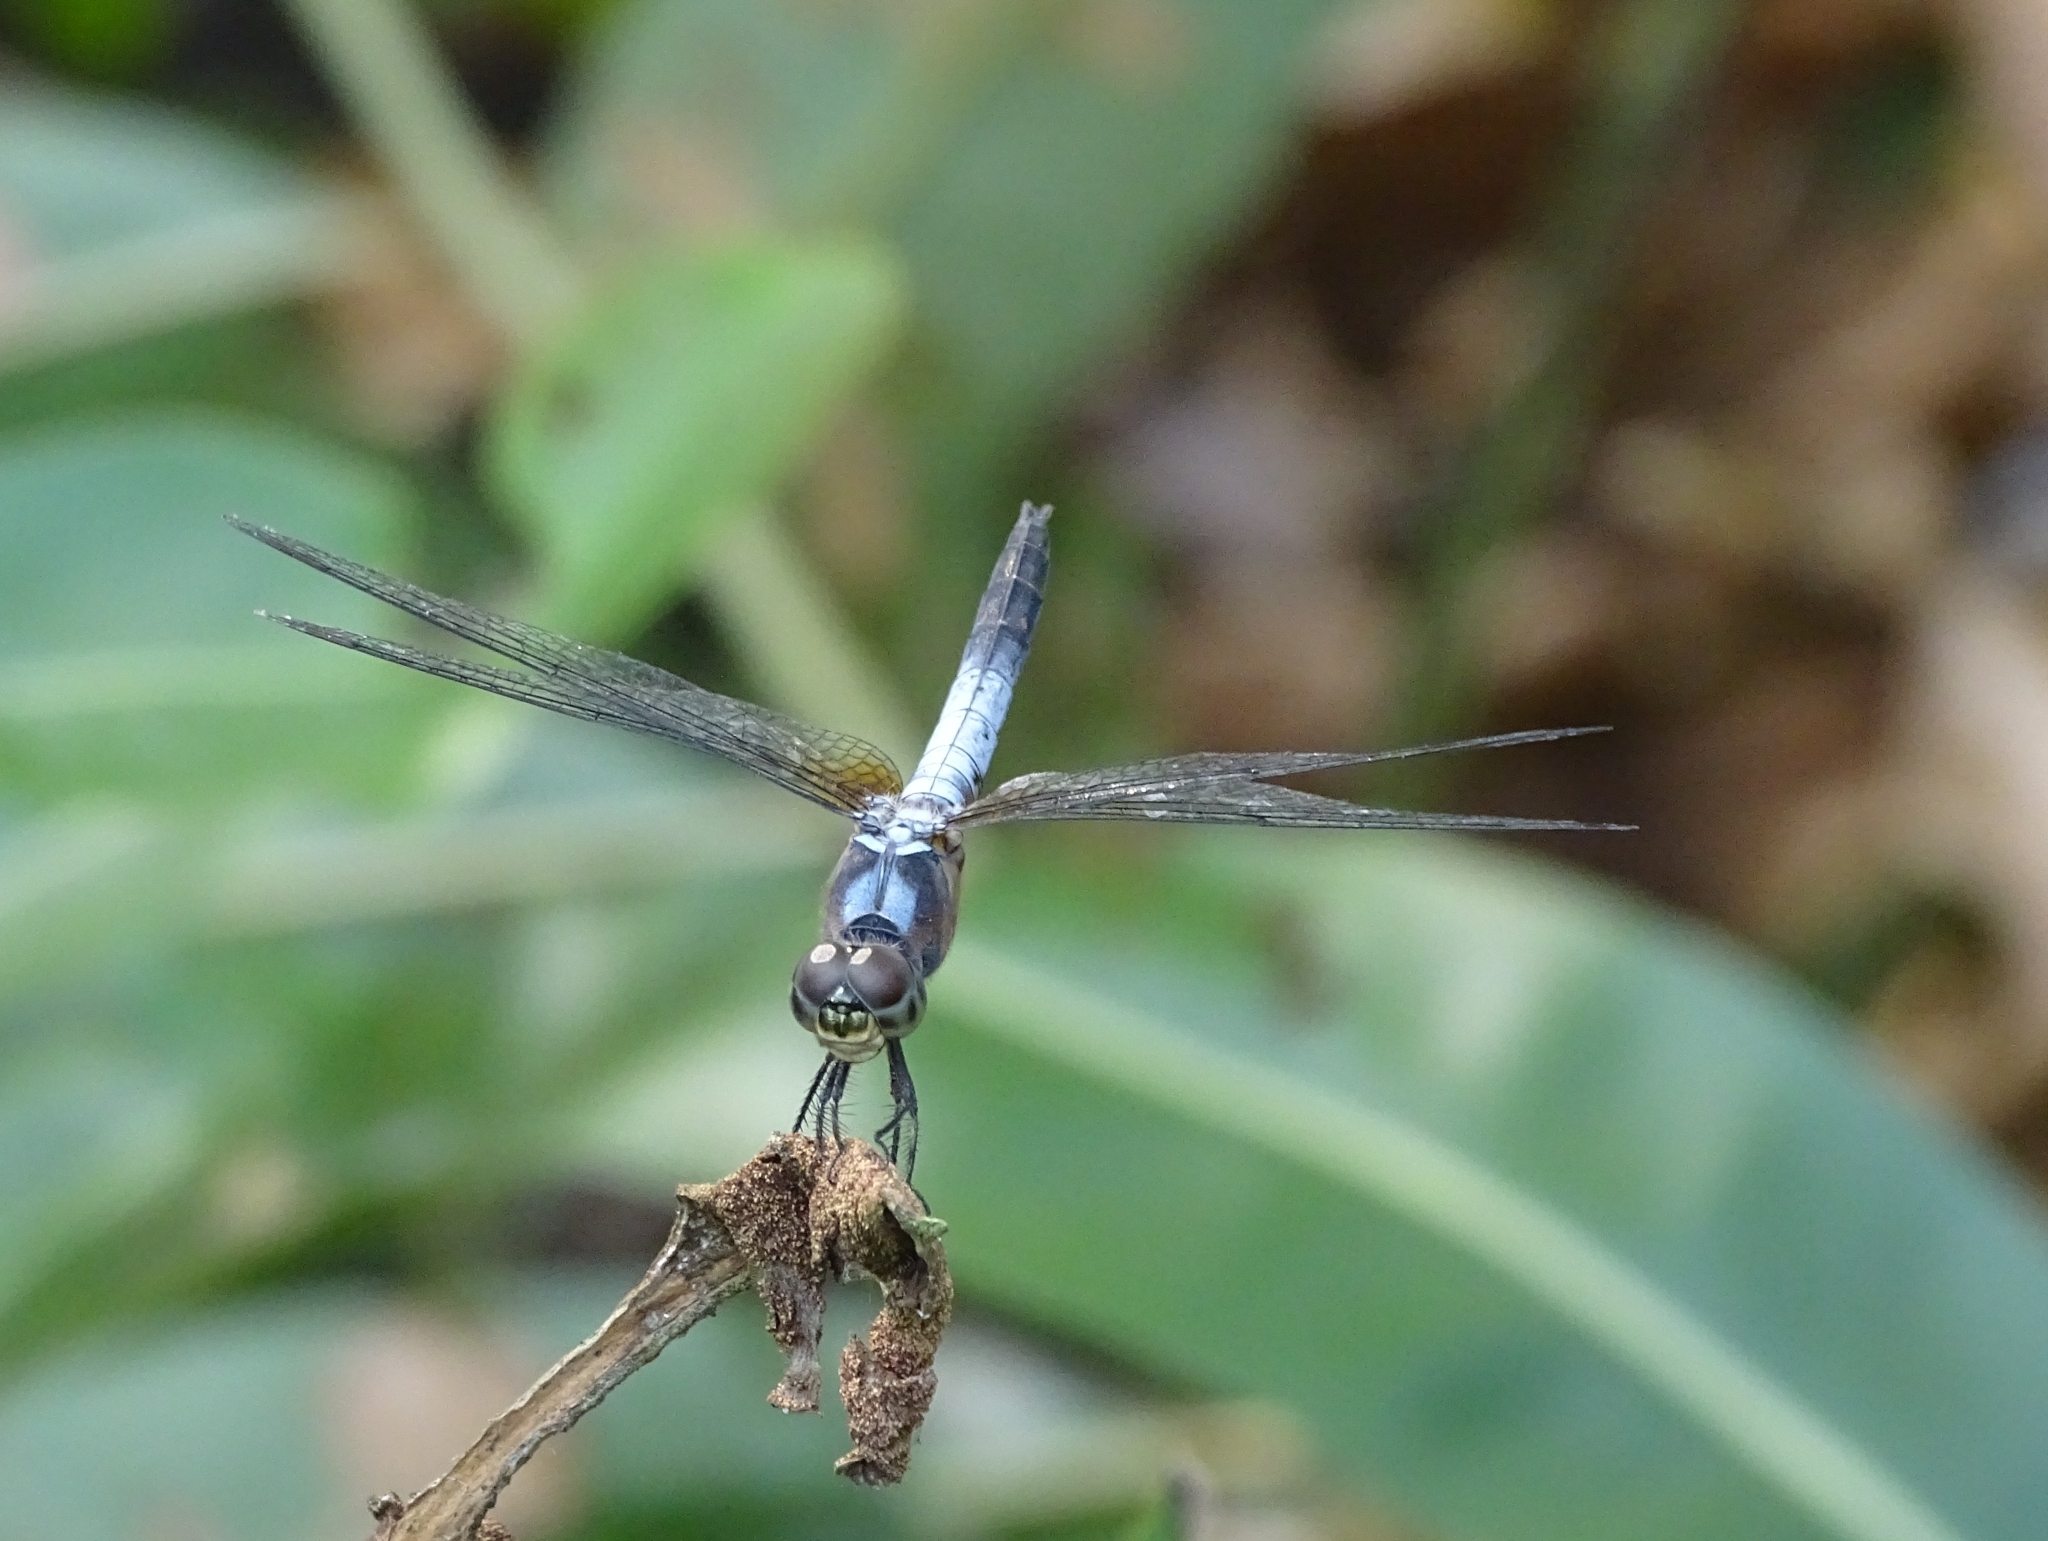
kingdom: Animalia
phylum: Arthropoda
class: Insecta
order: Odonata
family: Libellulidae
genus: Brachydiplax
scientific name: Brachydiplax chalybea
